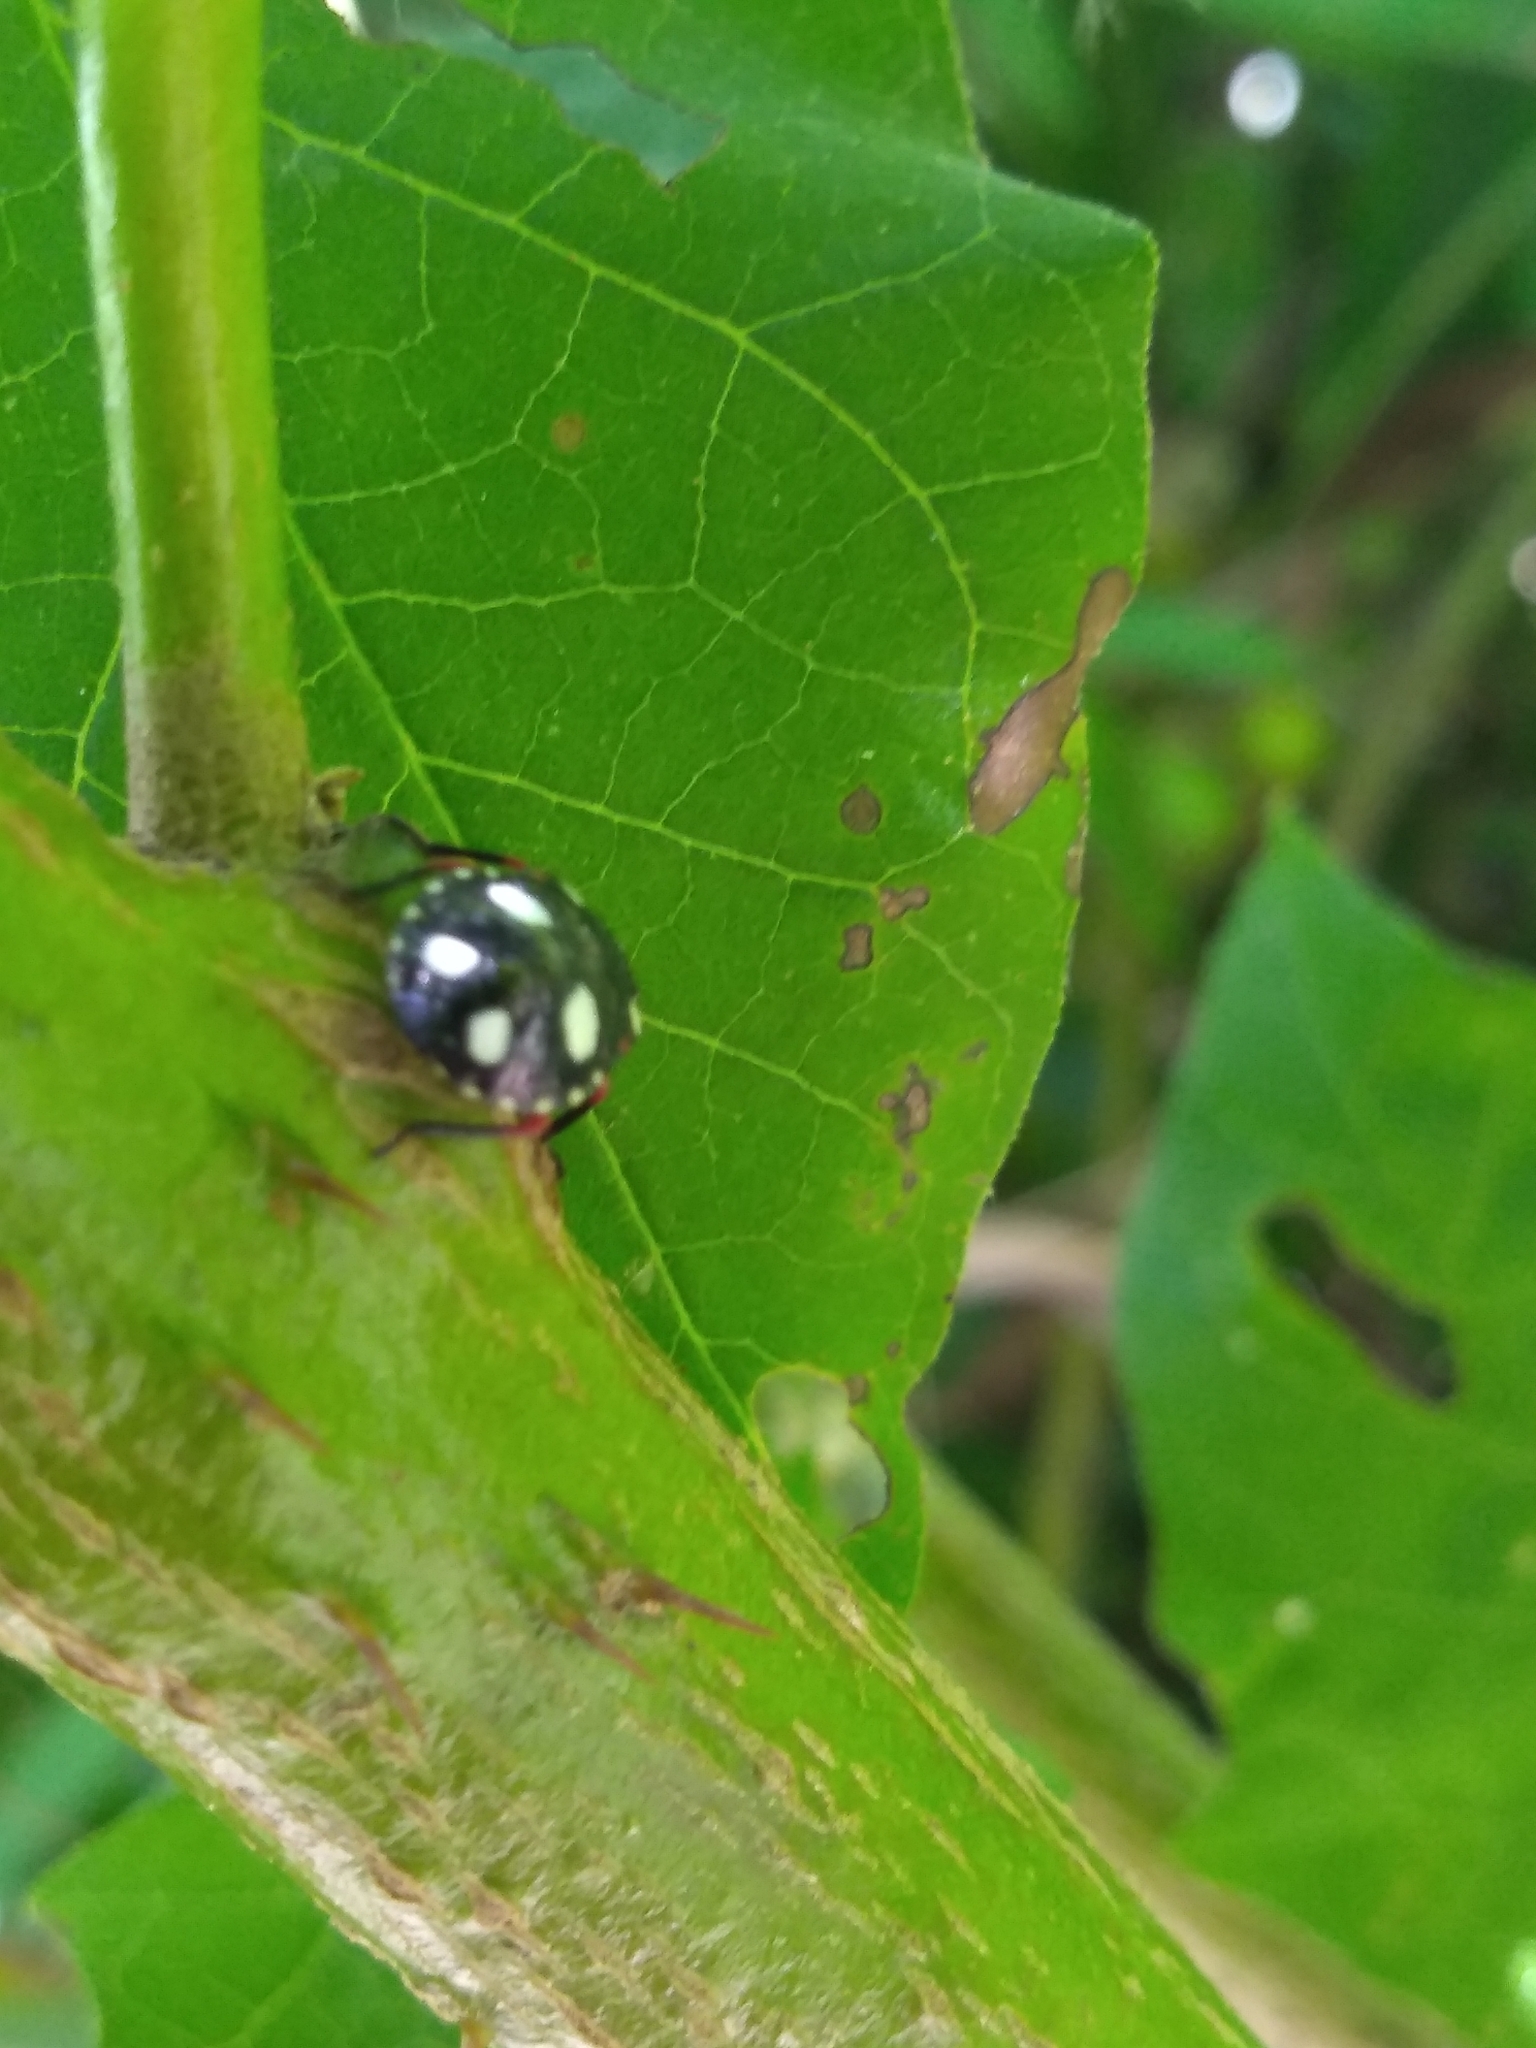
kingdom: Animalia
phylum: Arthropoda
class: Insecta
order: Hemiptera
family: Pentatomidae
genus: Chinavia
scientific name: Chinavia erythrocnemis
